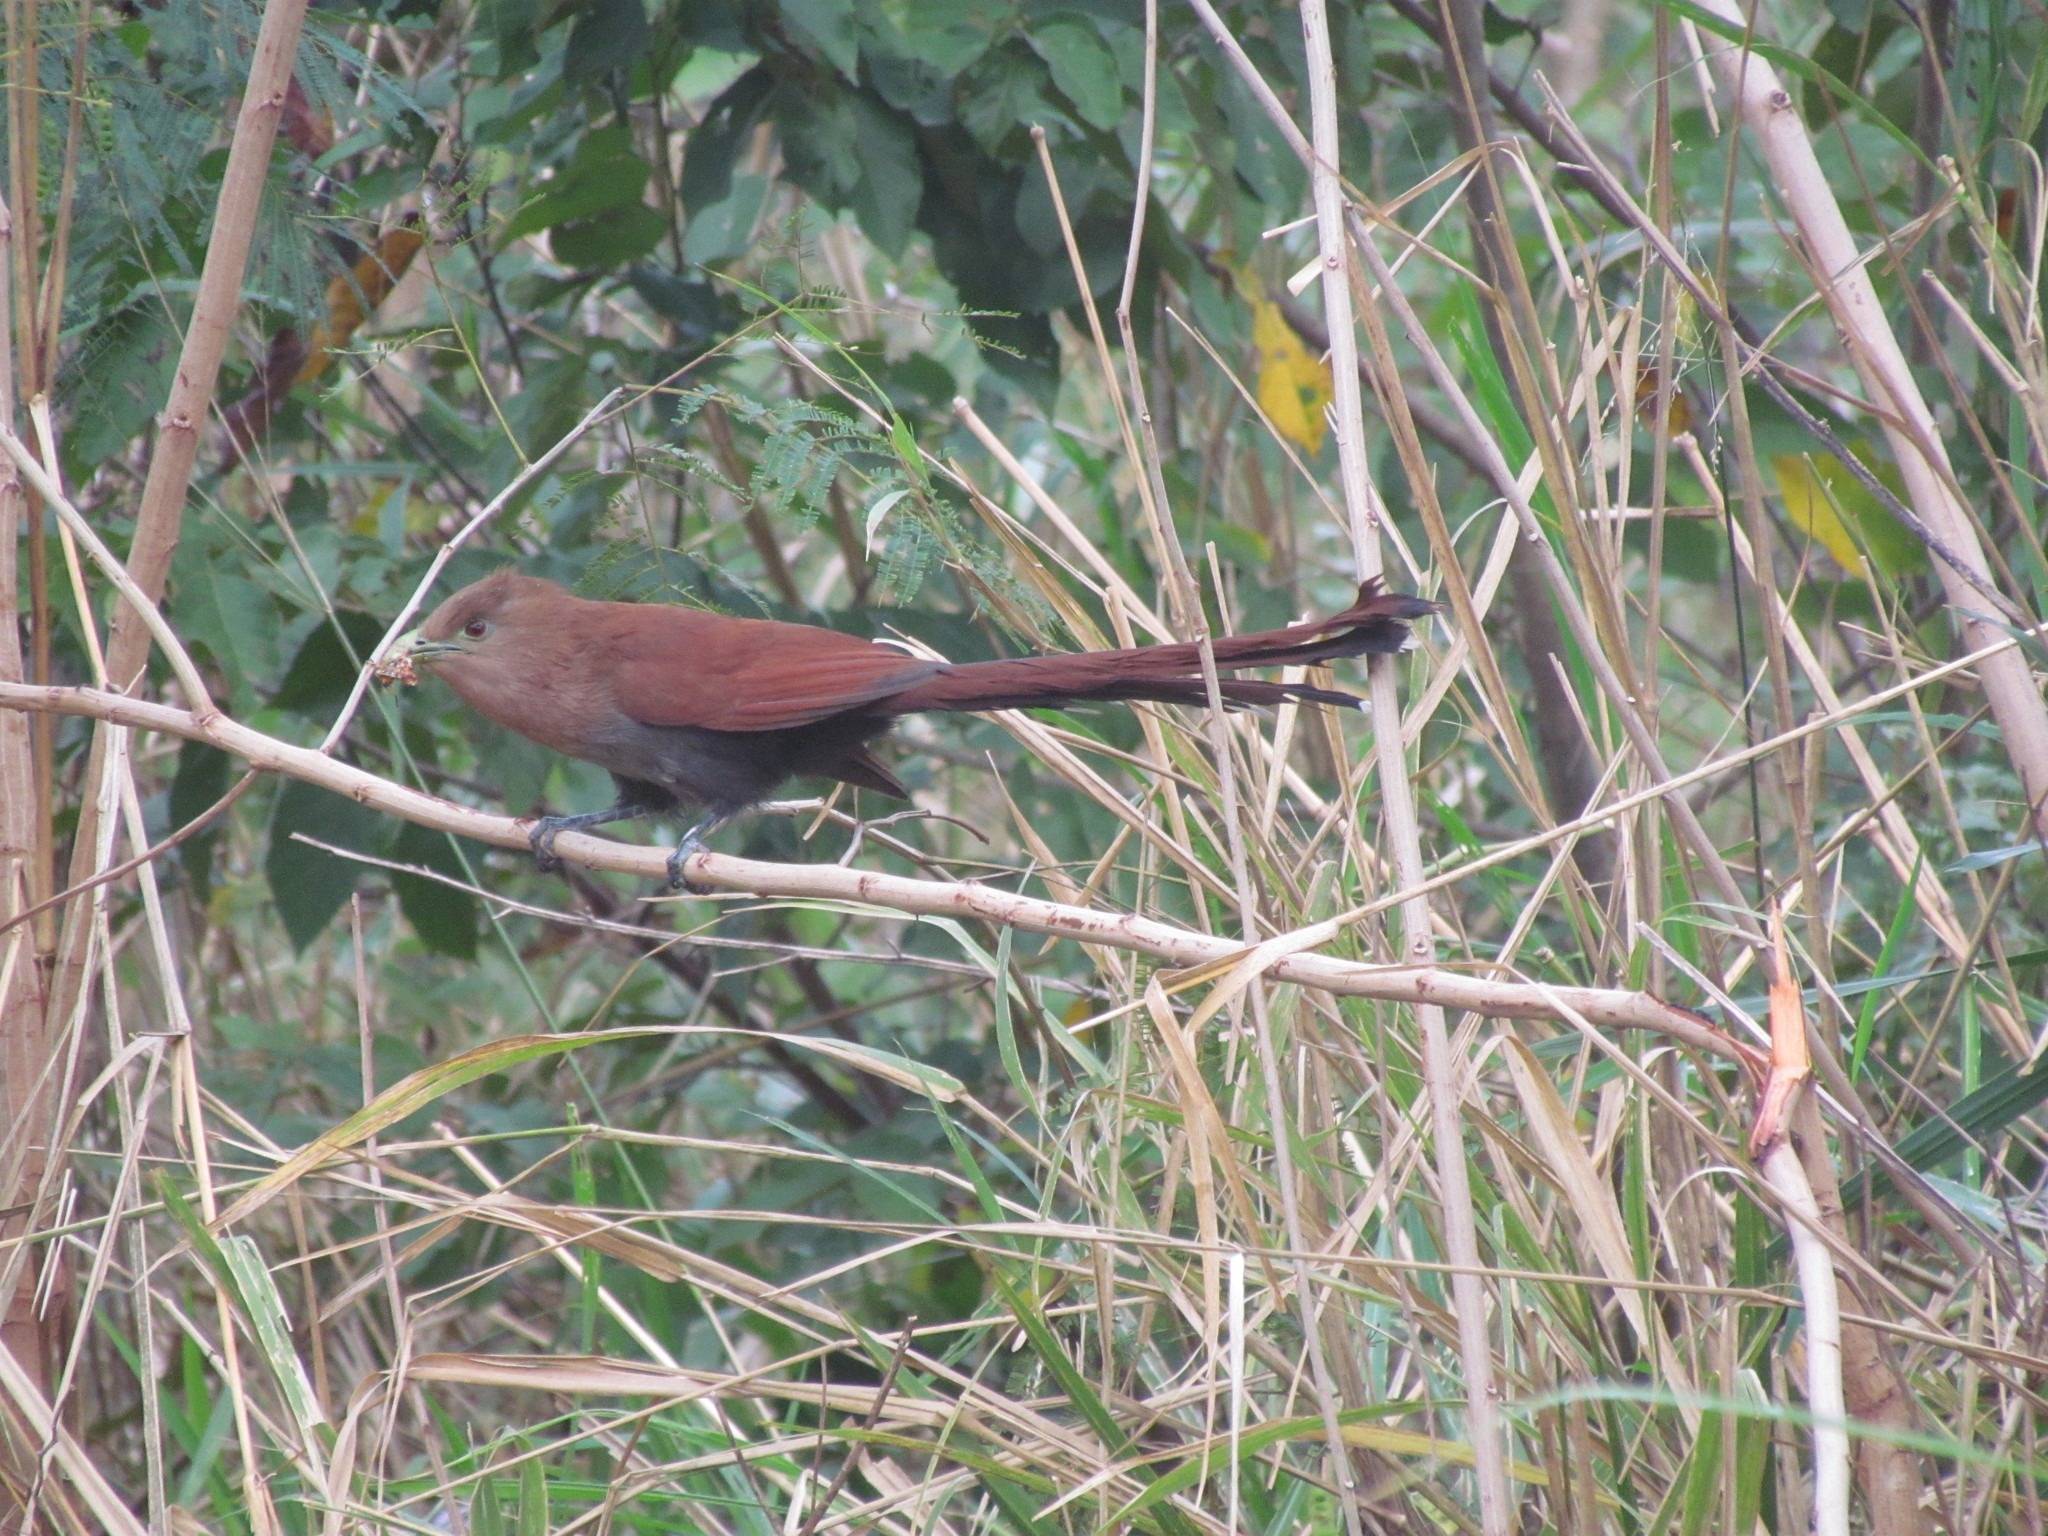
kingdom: Animalia
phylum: Chordata
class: Aves
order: Cuculiformes
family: Cuculidae
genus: Piaya
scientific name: Piaya cayana
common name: Squirrel cuckoo
